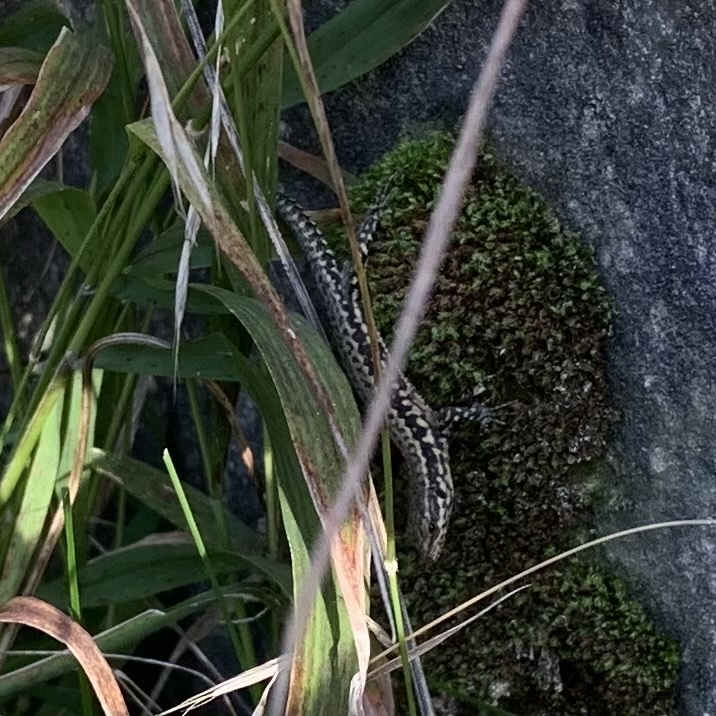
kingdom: Animalia
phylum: Chordata
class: Squamata
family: Lacertidae
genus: Podarcis
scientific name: Podarcis muralis
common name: Common wall lizard
